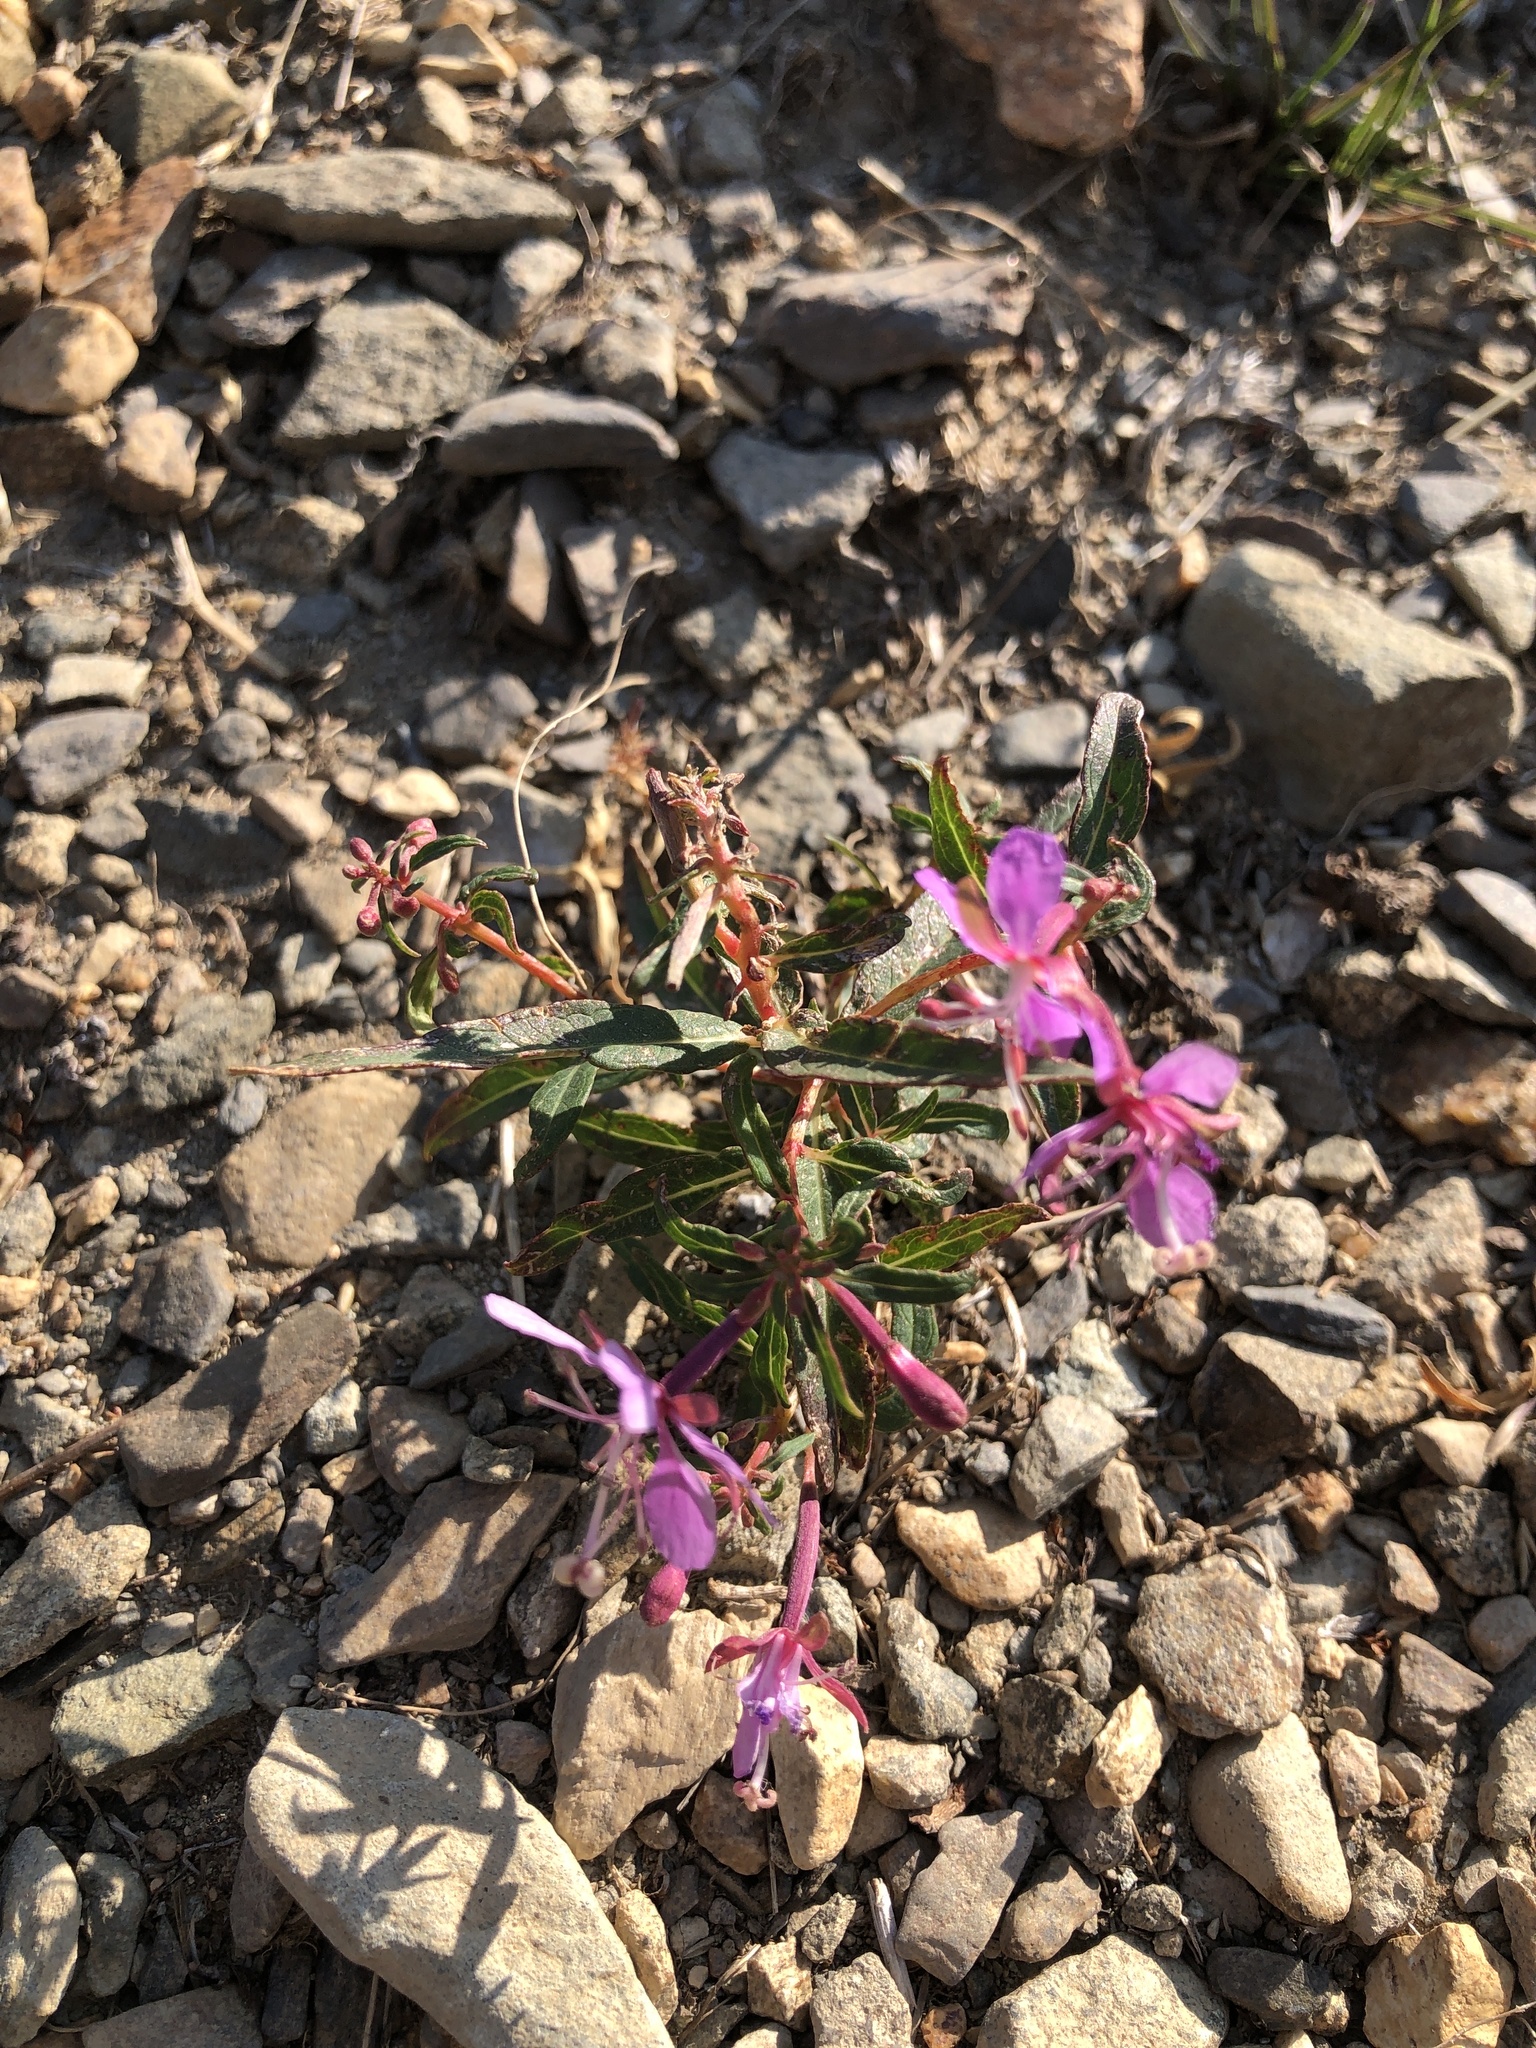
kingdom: Plantae
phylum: Tracheophyta
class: Magnoliopsida
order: Myrtales
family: Onagraceae
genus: Chamaenerion
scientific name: Chamaenerion angustifolium
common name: Fireweed
